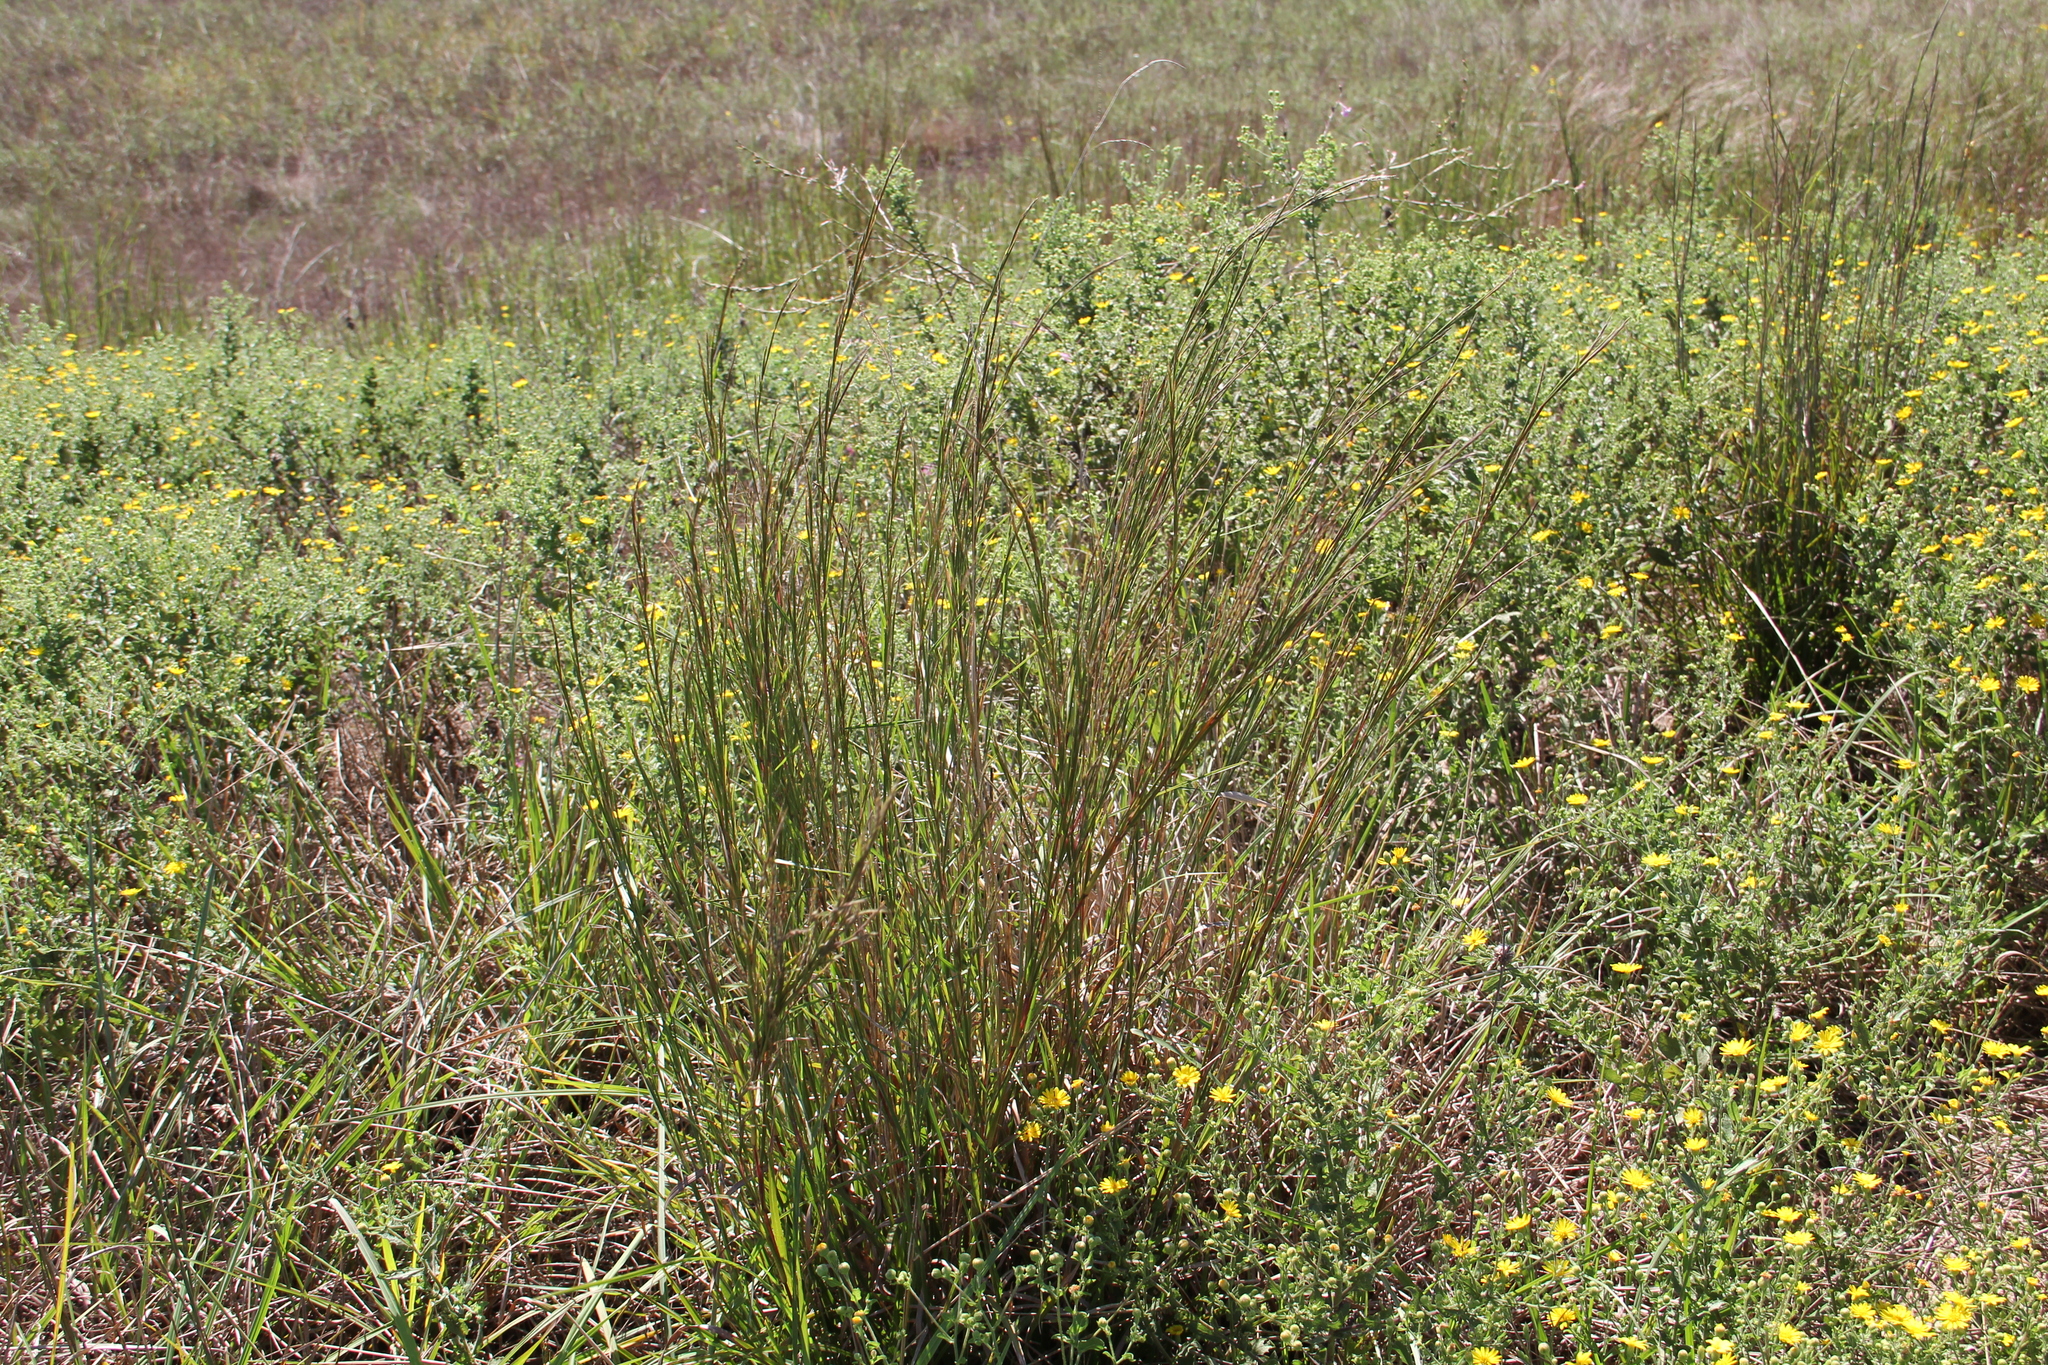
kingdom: Plantae
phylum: Tracheophyta
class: Liliopsida
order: Poales
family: Poaceae
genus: Schizachyrium
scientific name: Schizachyrium scoparium
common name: Little bluestem
